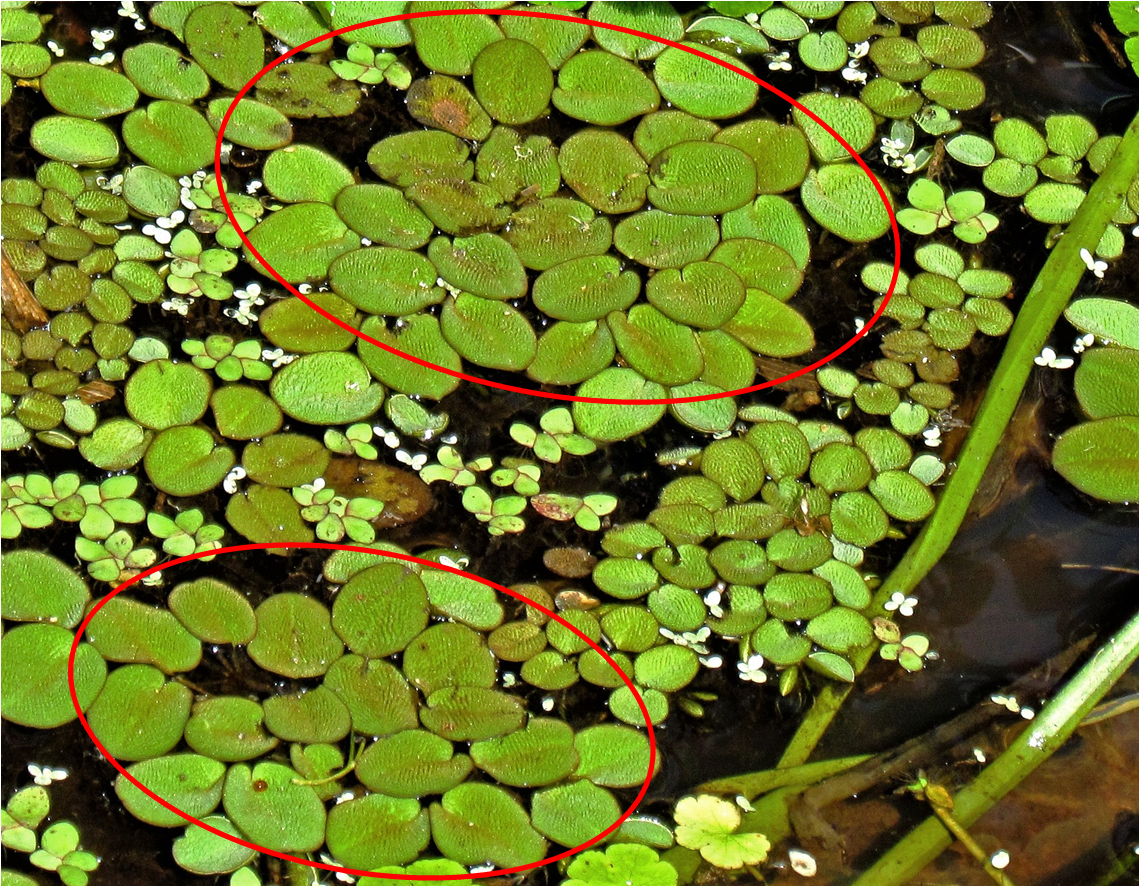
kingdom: Plantae
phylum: Tracheophyta
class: Polypodiopsida
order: Salviniales
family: Salviniaceae
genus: Salvinia
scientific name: Salvinia minima
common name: Water spangles
